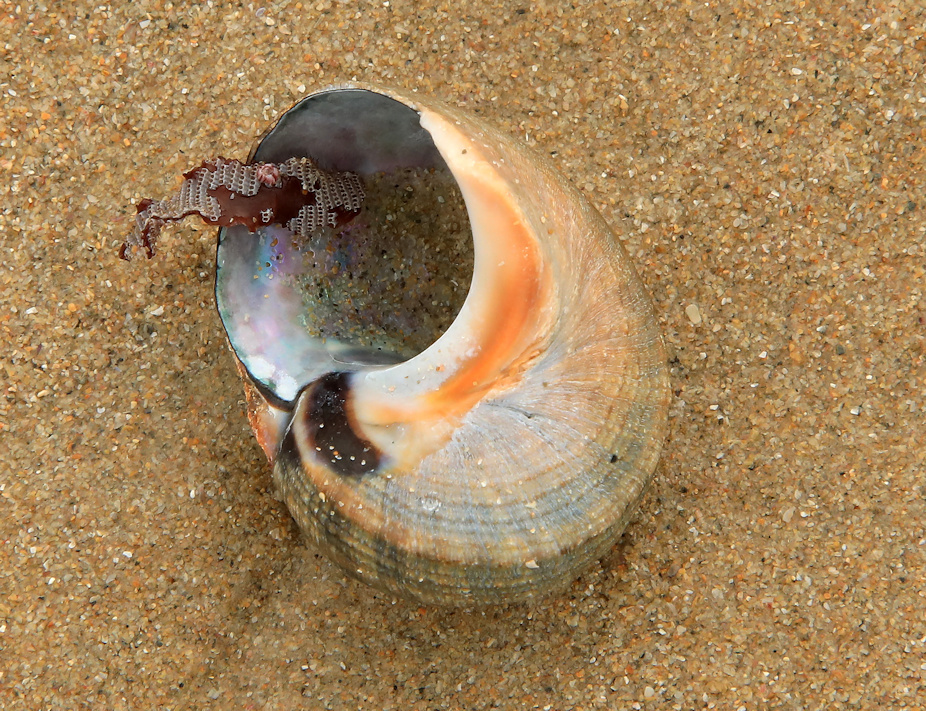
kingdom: Animalia
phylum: Mollusca
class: Gastropoda
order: Trochida
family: Turbinidae
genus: Turbo
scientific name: Turbo sarmaticus
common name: South african turban
